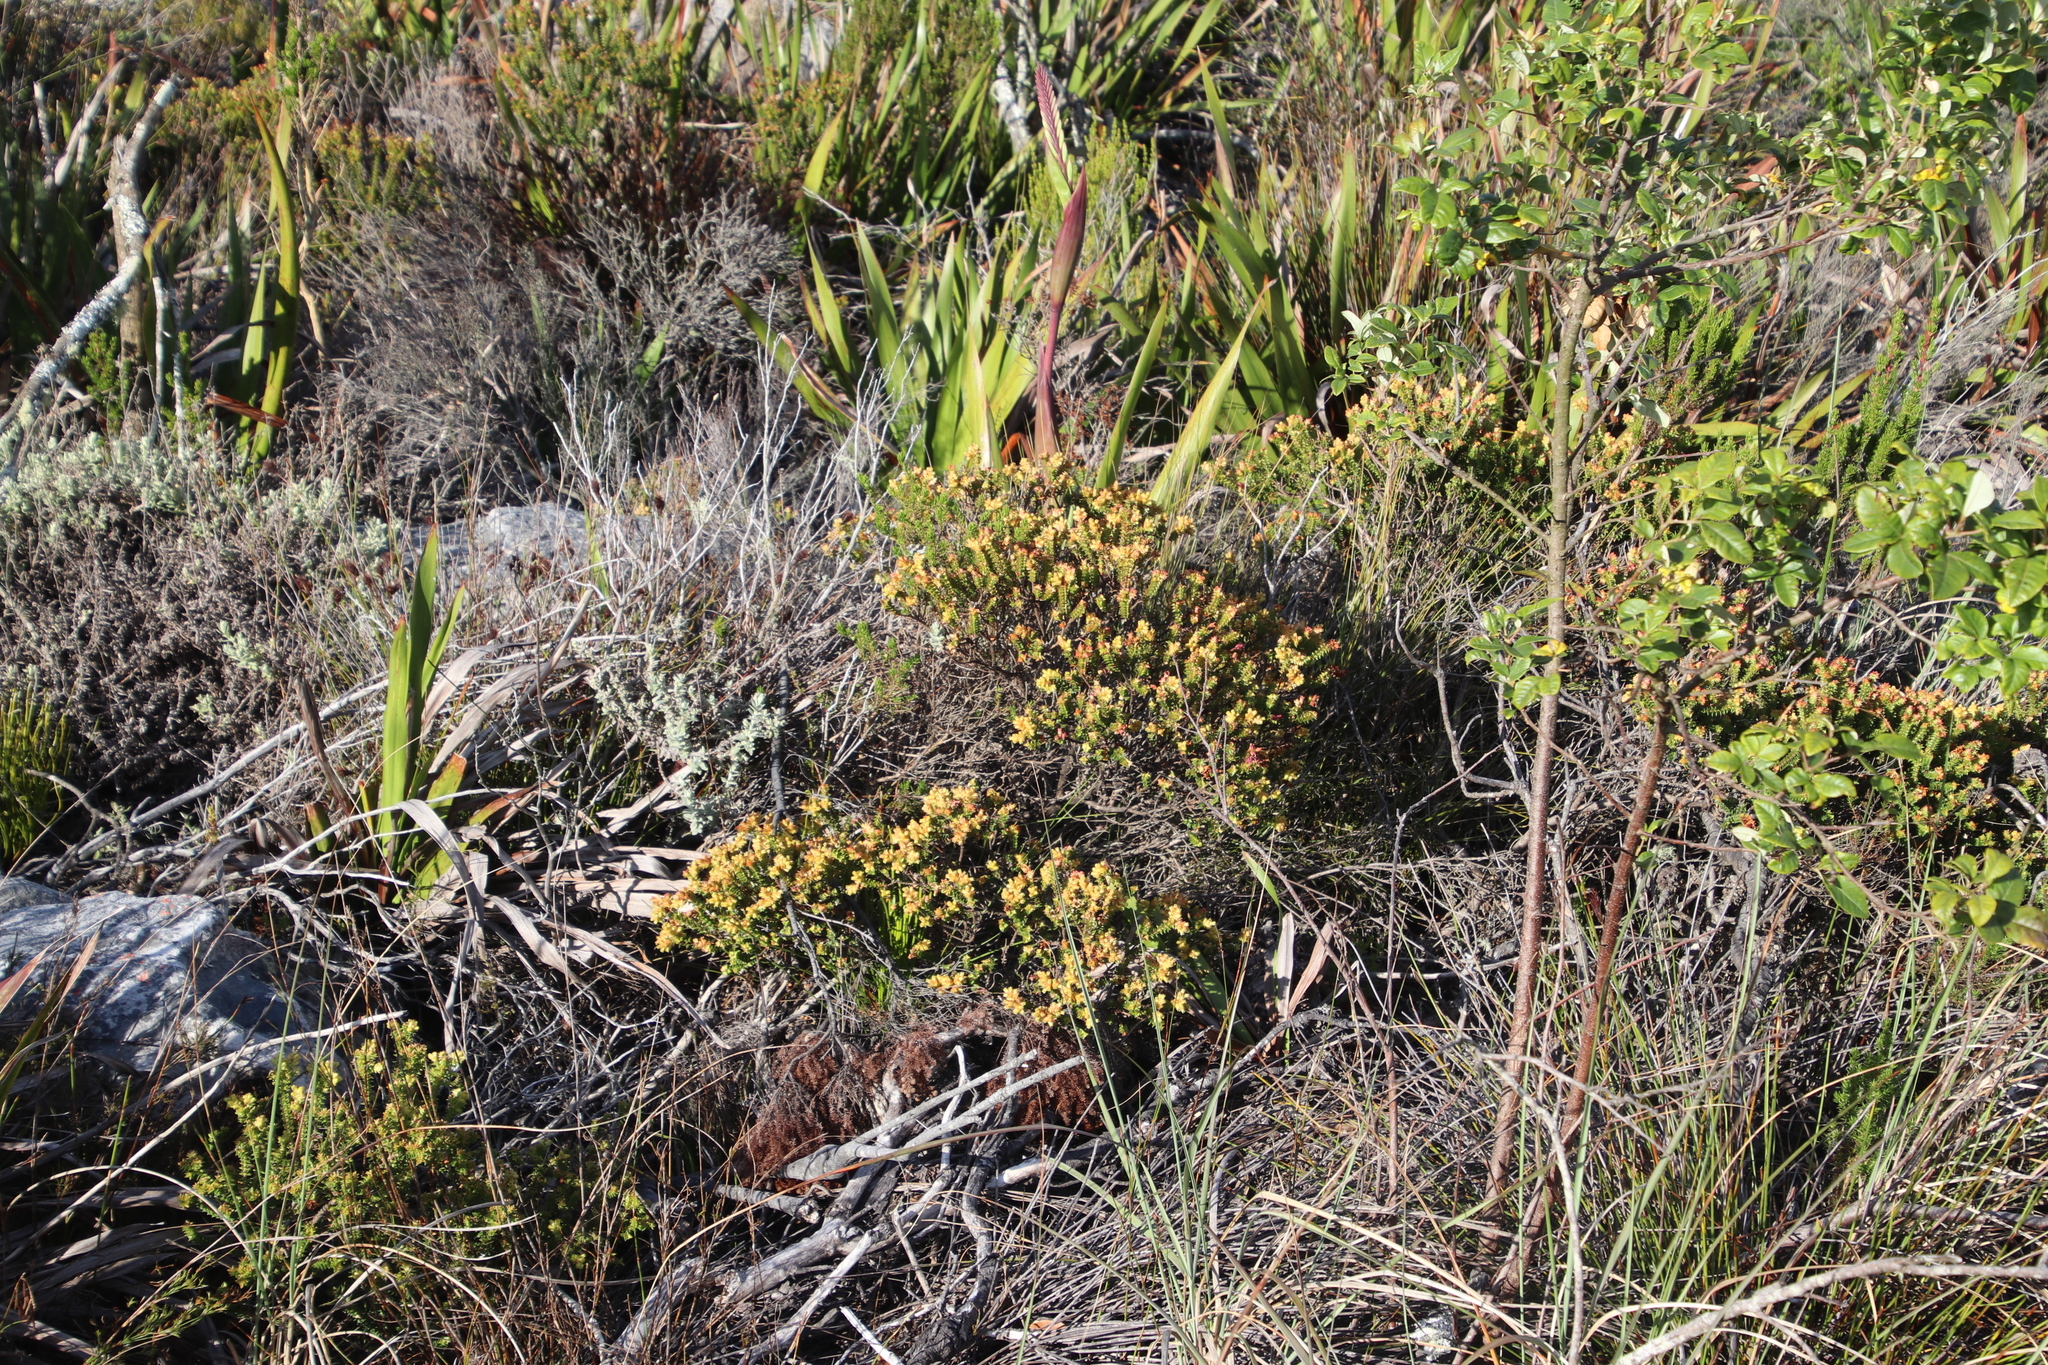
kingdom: Plantae
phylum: Tracheophyta
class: Magnoliopsida
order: Myrtales
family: Penaeaceae
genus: Penaea
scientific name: Penaea mucronata
